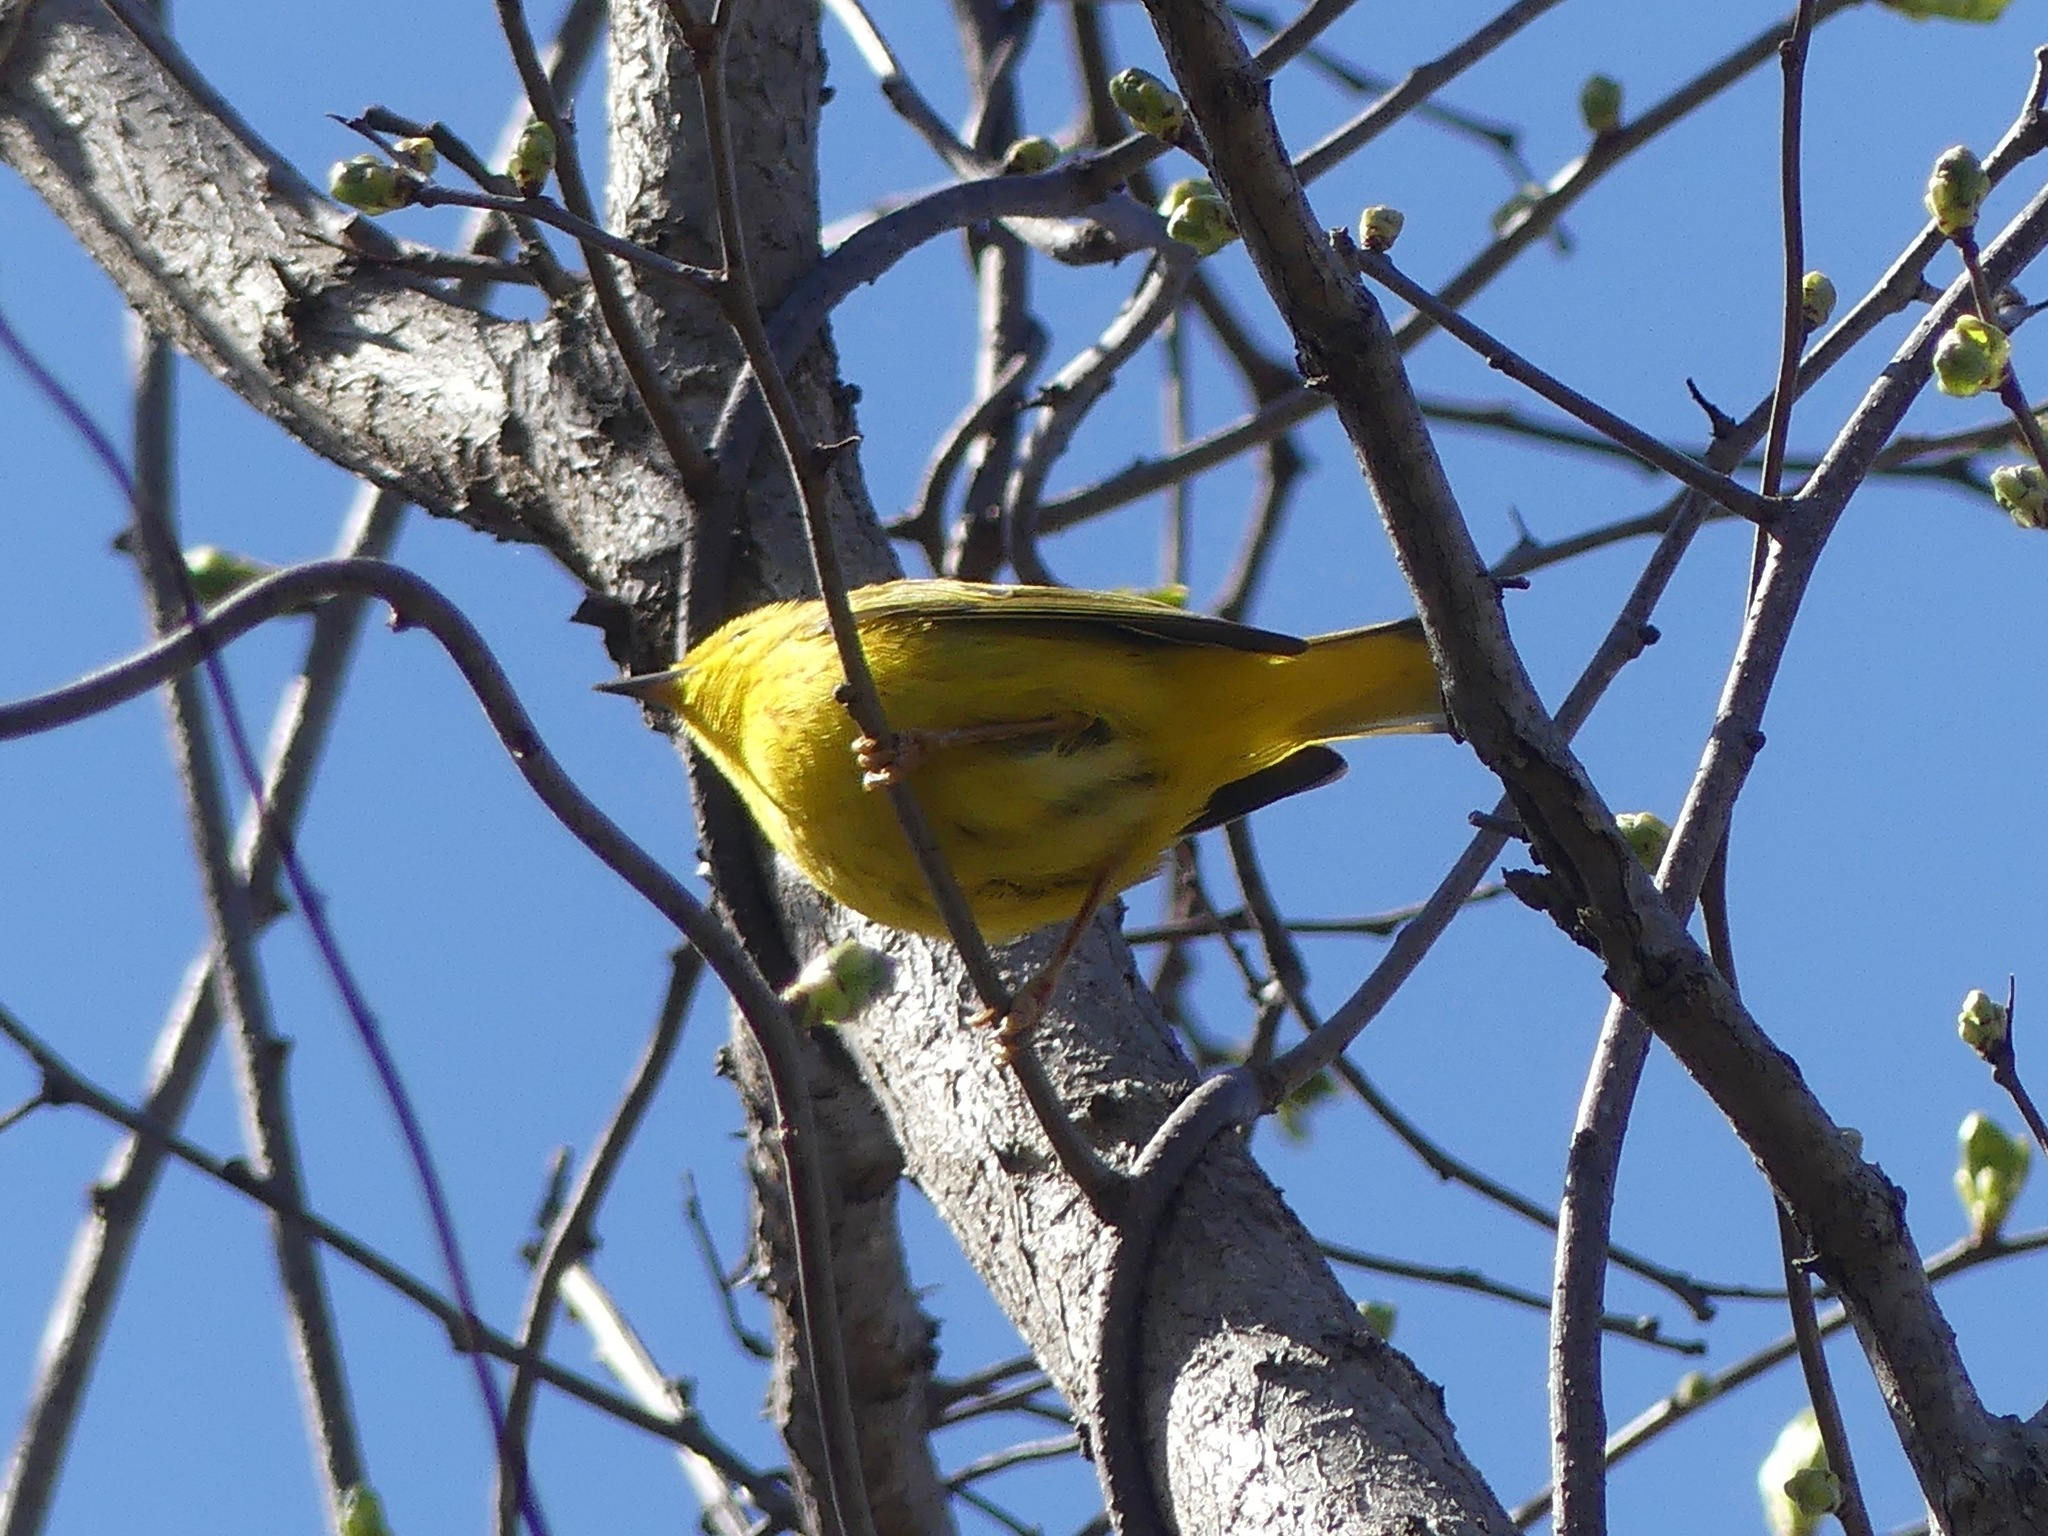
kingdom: Animalia
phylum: Chordata
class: Aves
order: Passeriformes
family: Parulidae
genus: Setophaga
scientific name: Setophaga petechia
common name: Yellow warbler
